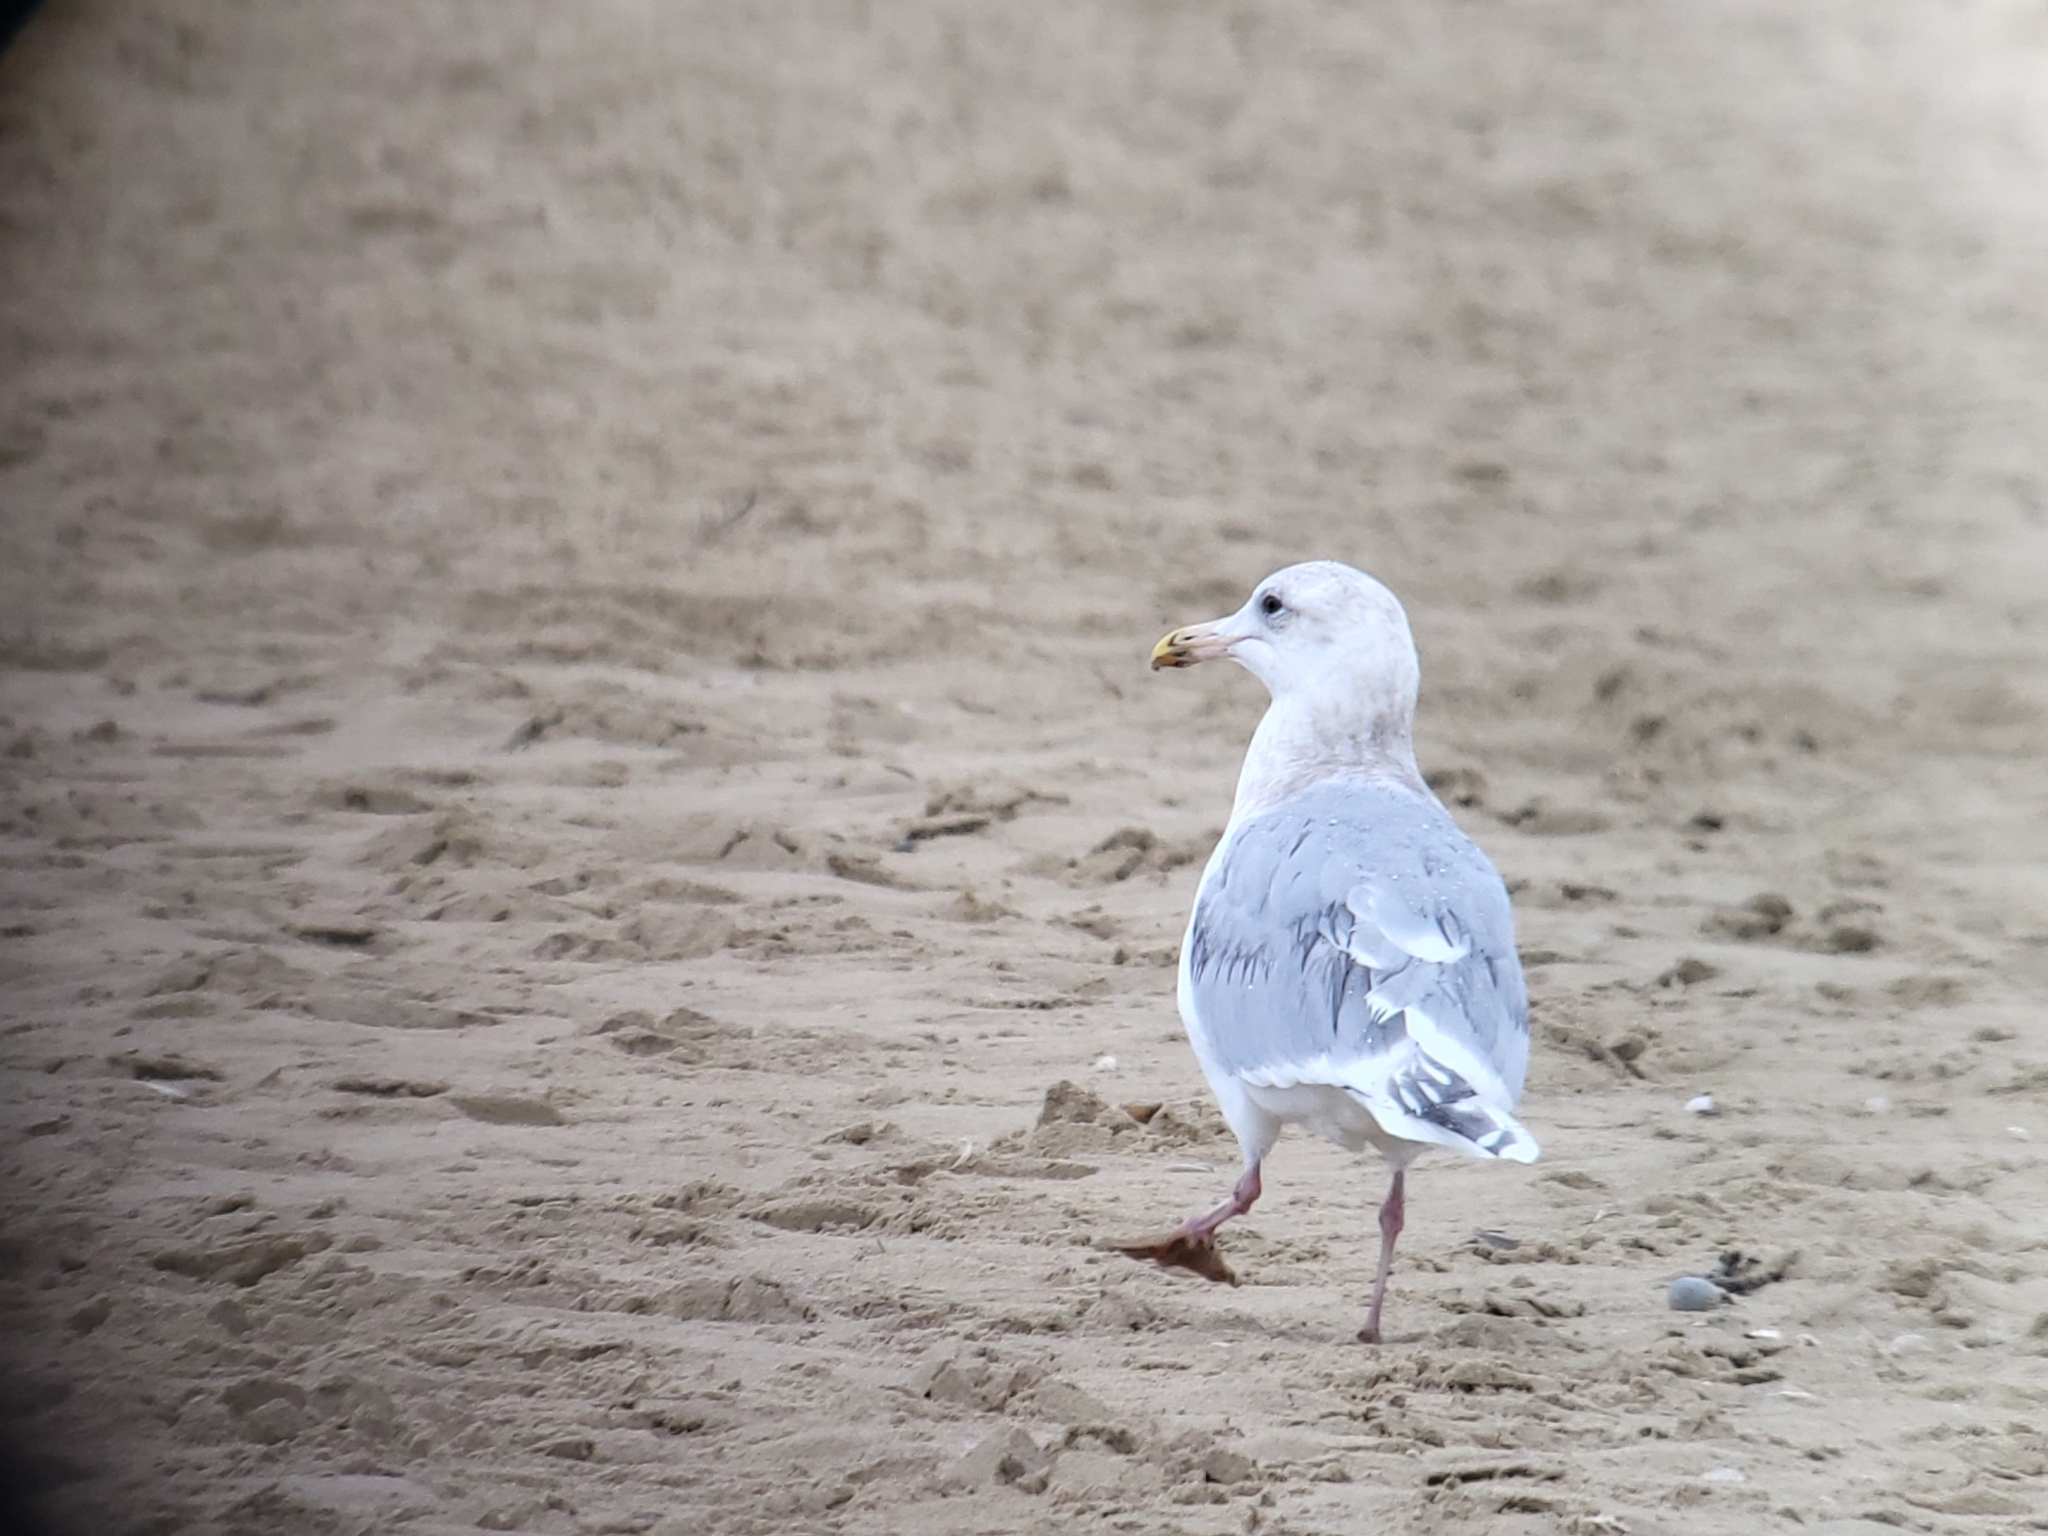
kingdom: Animalia
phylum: Chordata
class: Aves
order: Charadriiformes
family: Laridae
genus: Larus
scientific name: Larus glaucescens
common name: Glaucous-winged gull
